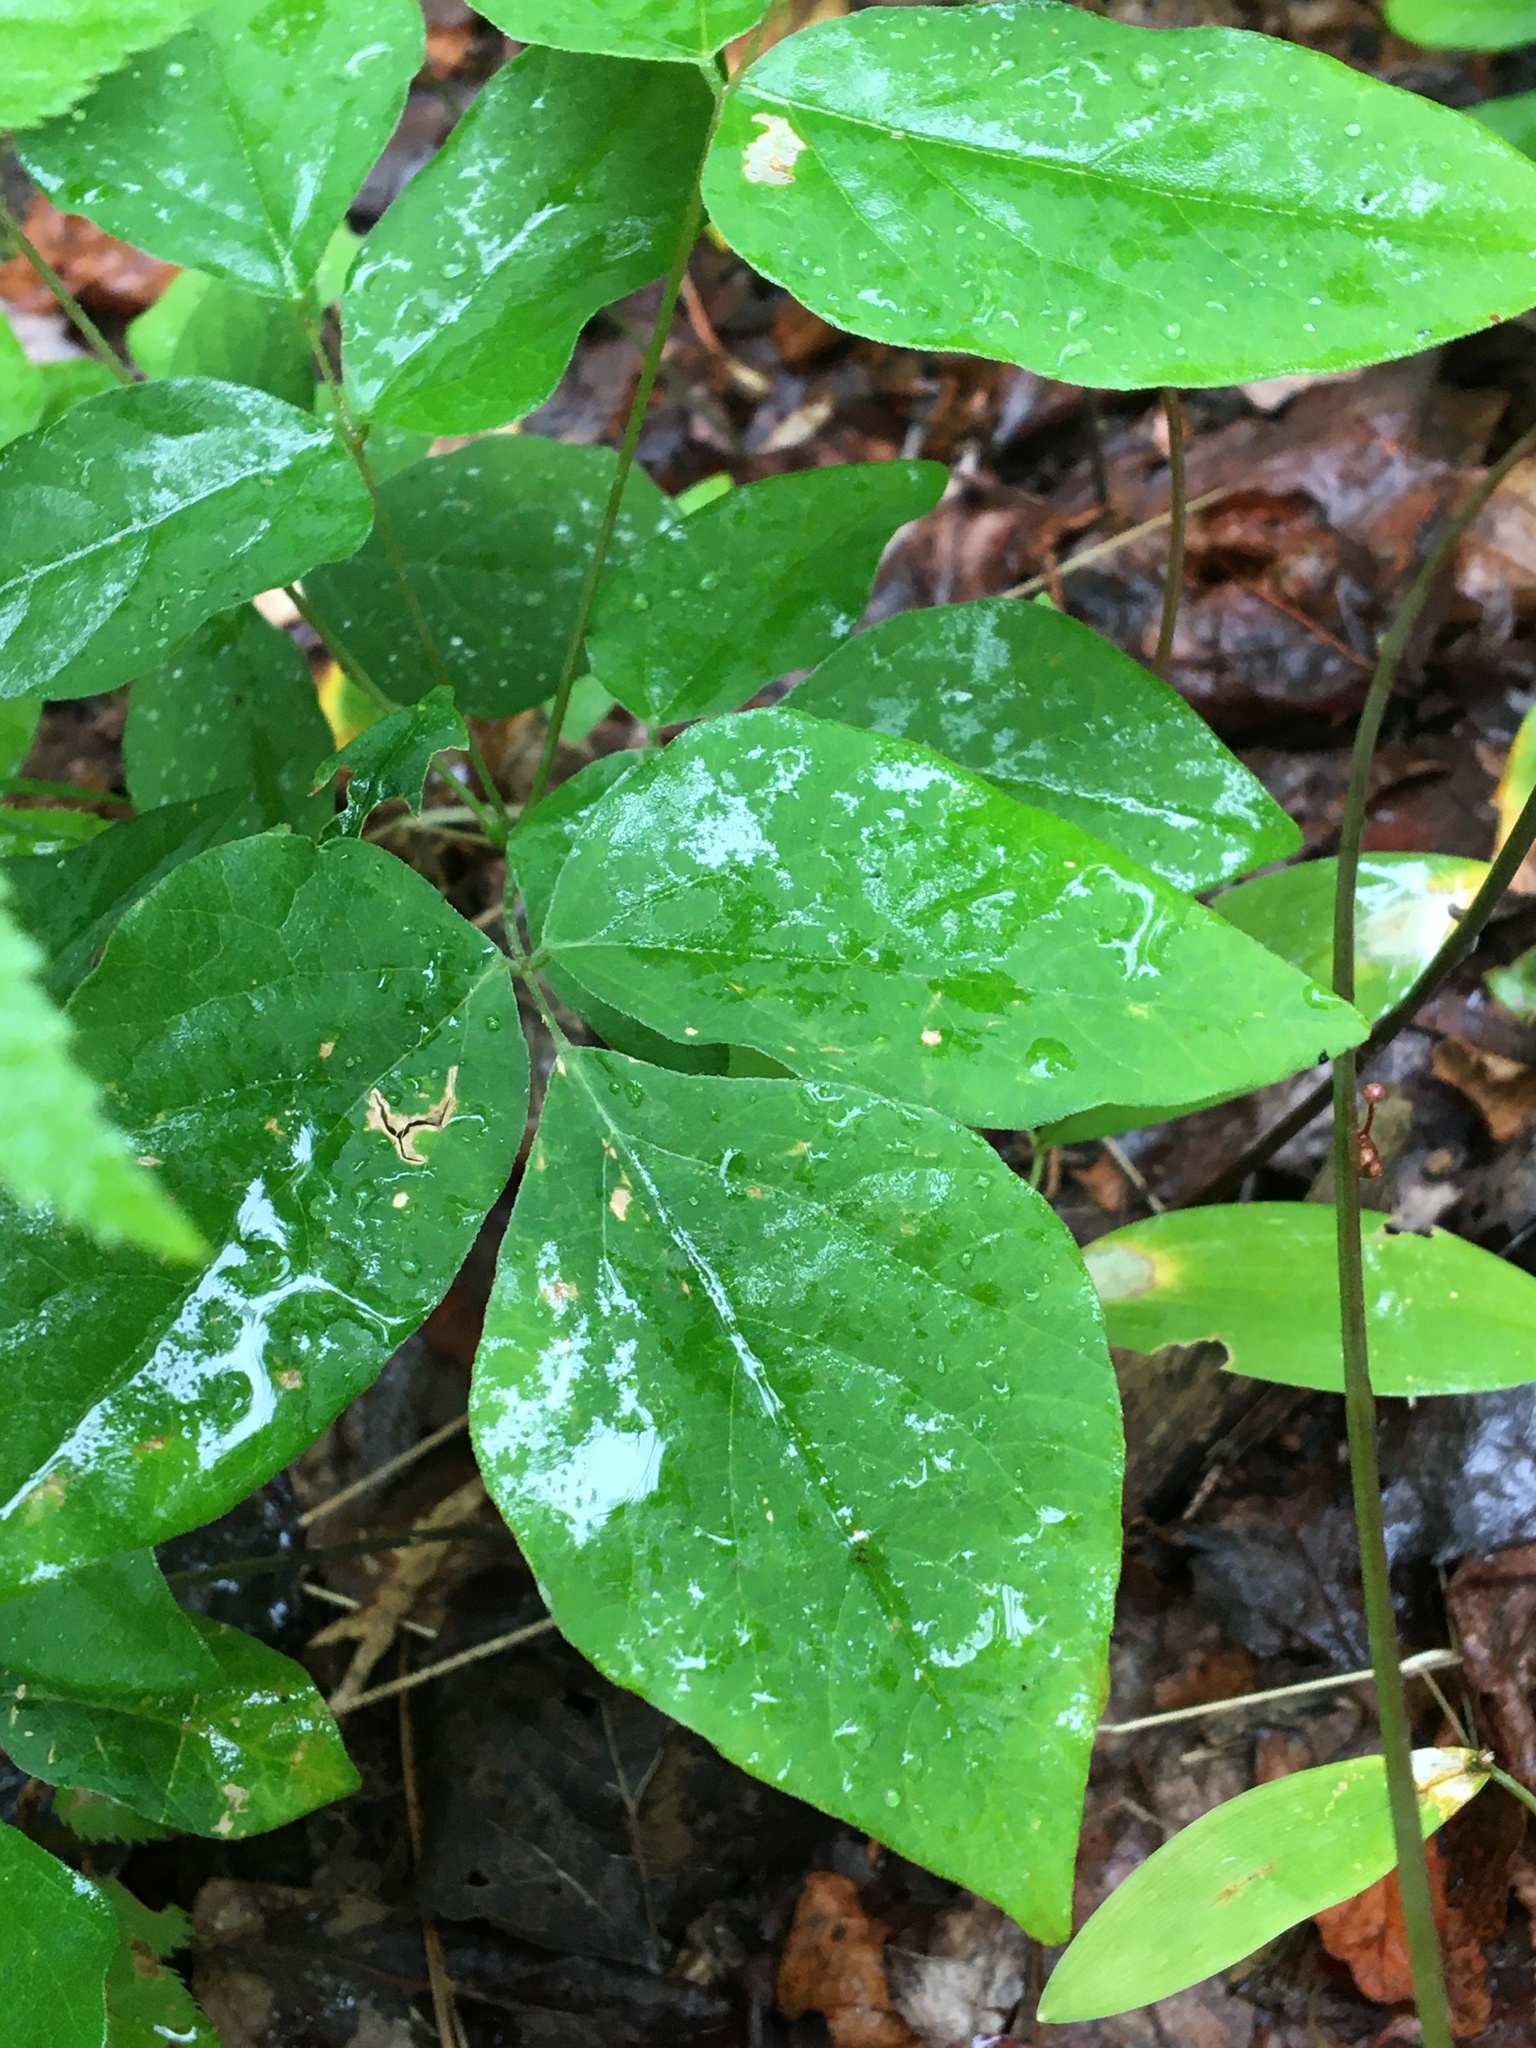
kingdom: Plantae
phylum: Tracheophyta
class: Magnoliopsida
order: Fabales
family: Fabaceae
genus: Hylodesmum
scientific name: Hylodesmum nudiflorum
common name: Bare-stemmed tick-trefoil
